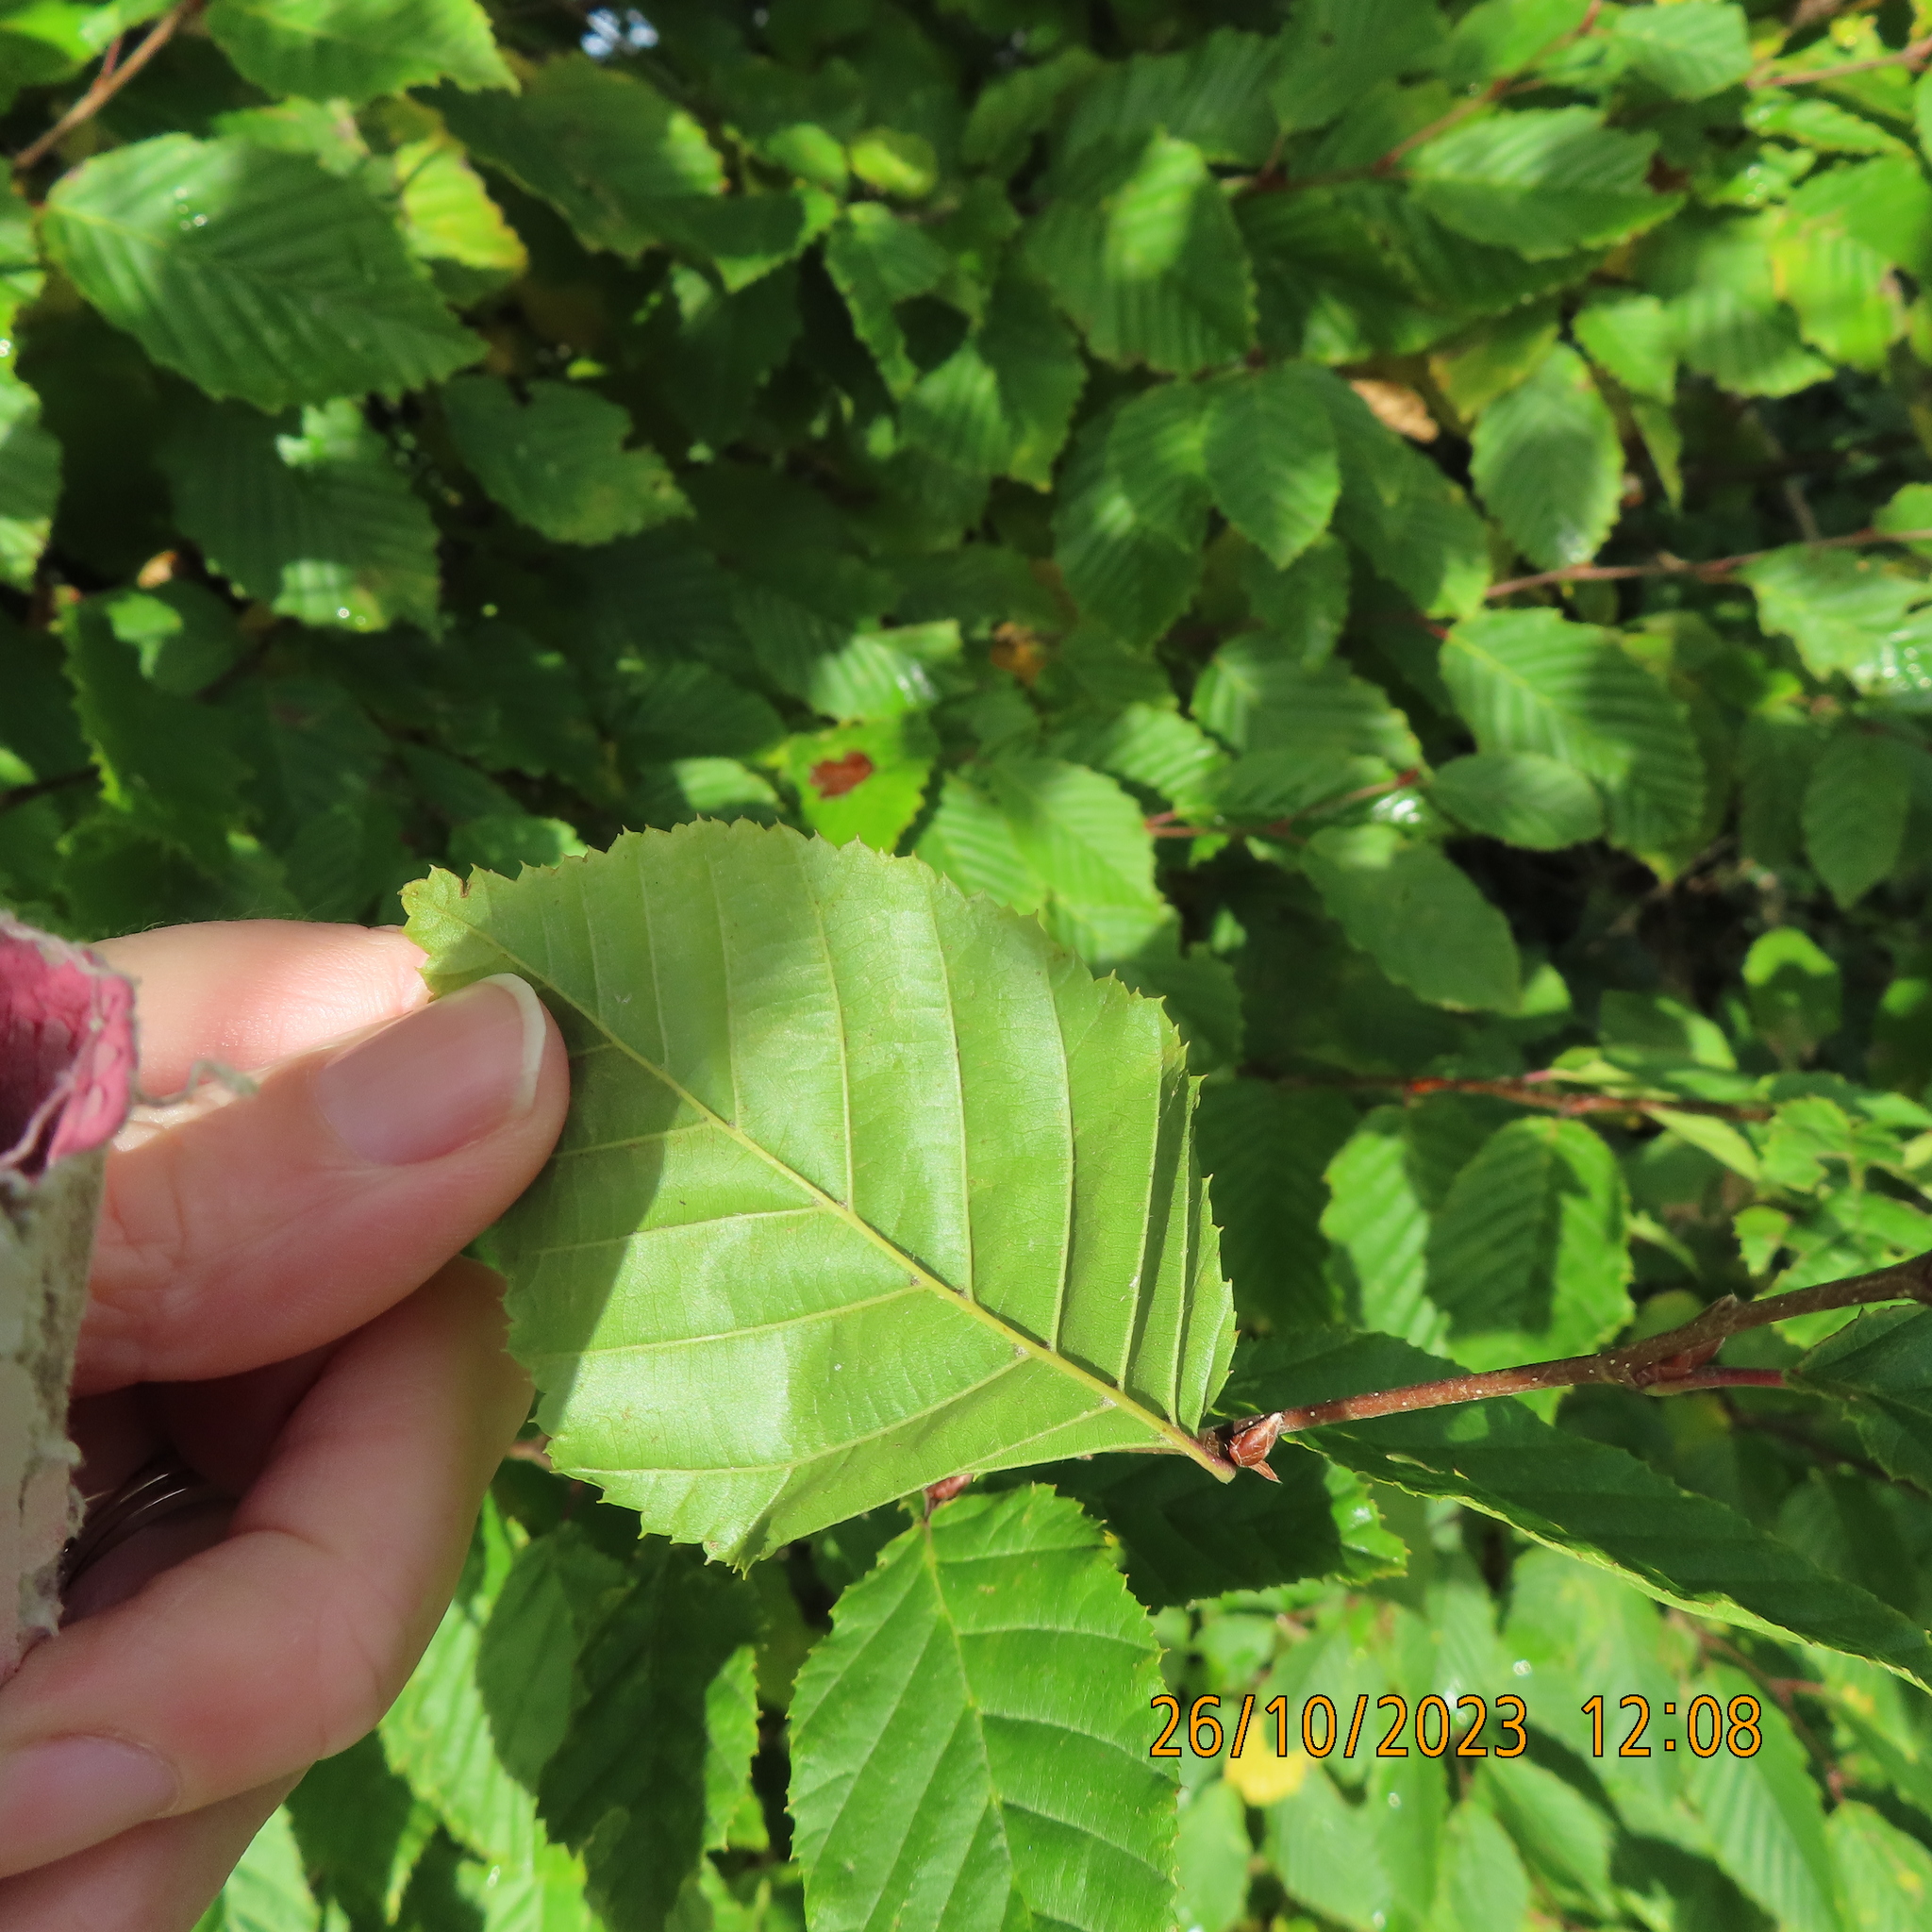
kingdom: Plantae
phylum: Tracheophyta
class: Magnoliopsida
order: Fagales
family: Betulaceae
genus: Carpinus
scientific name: Carpinus betulus
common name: Hornbeam
